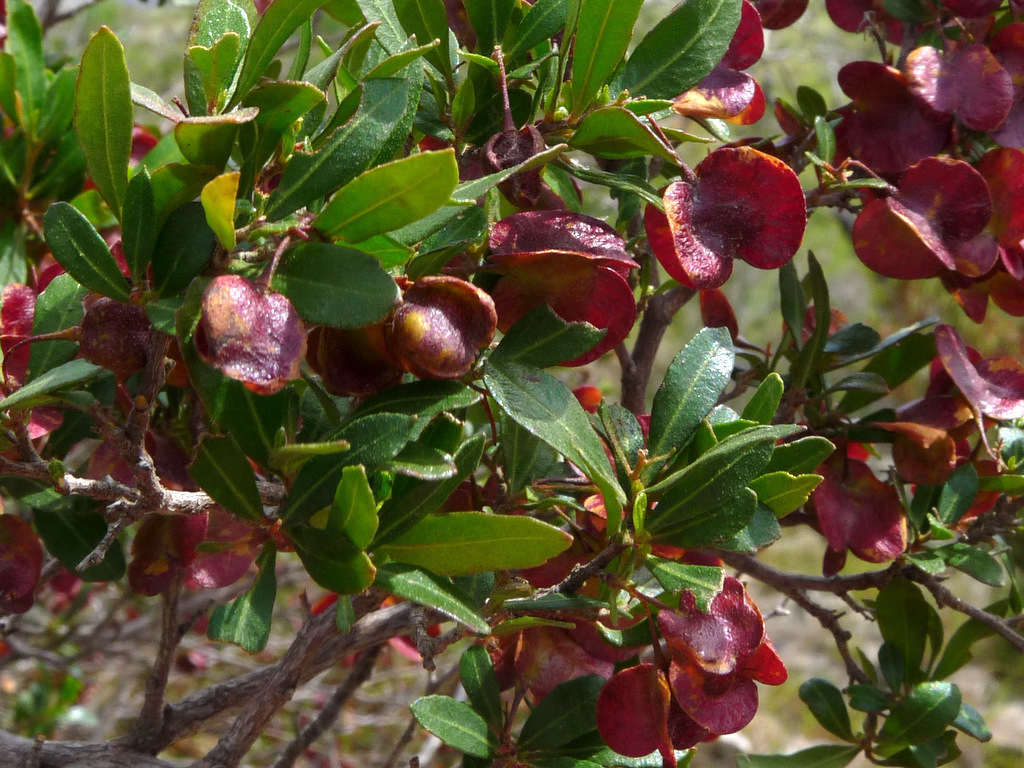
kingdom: Plantae
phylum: Tracheophyta
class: Magnoliopsida
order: Sapindales
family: Sapindaceae
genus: Dodonaea
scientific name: Dodonaea viscosa
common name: Hopbush
